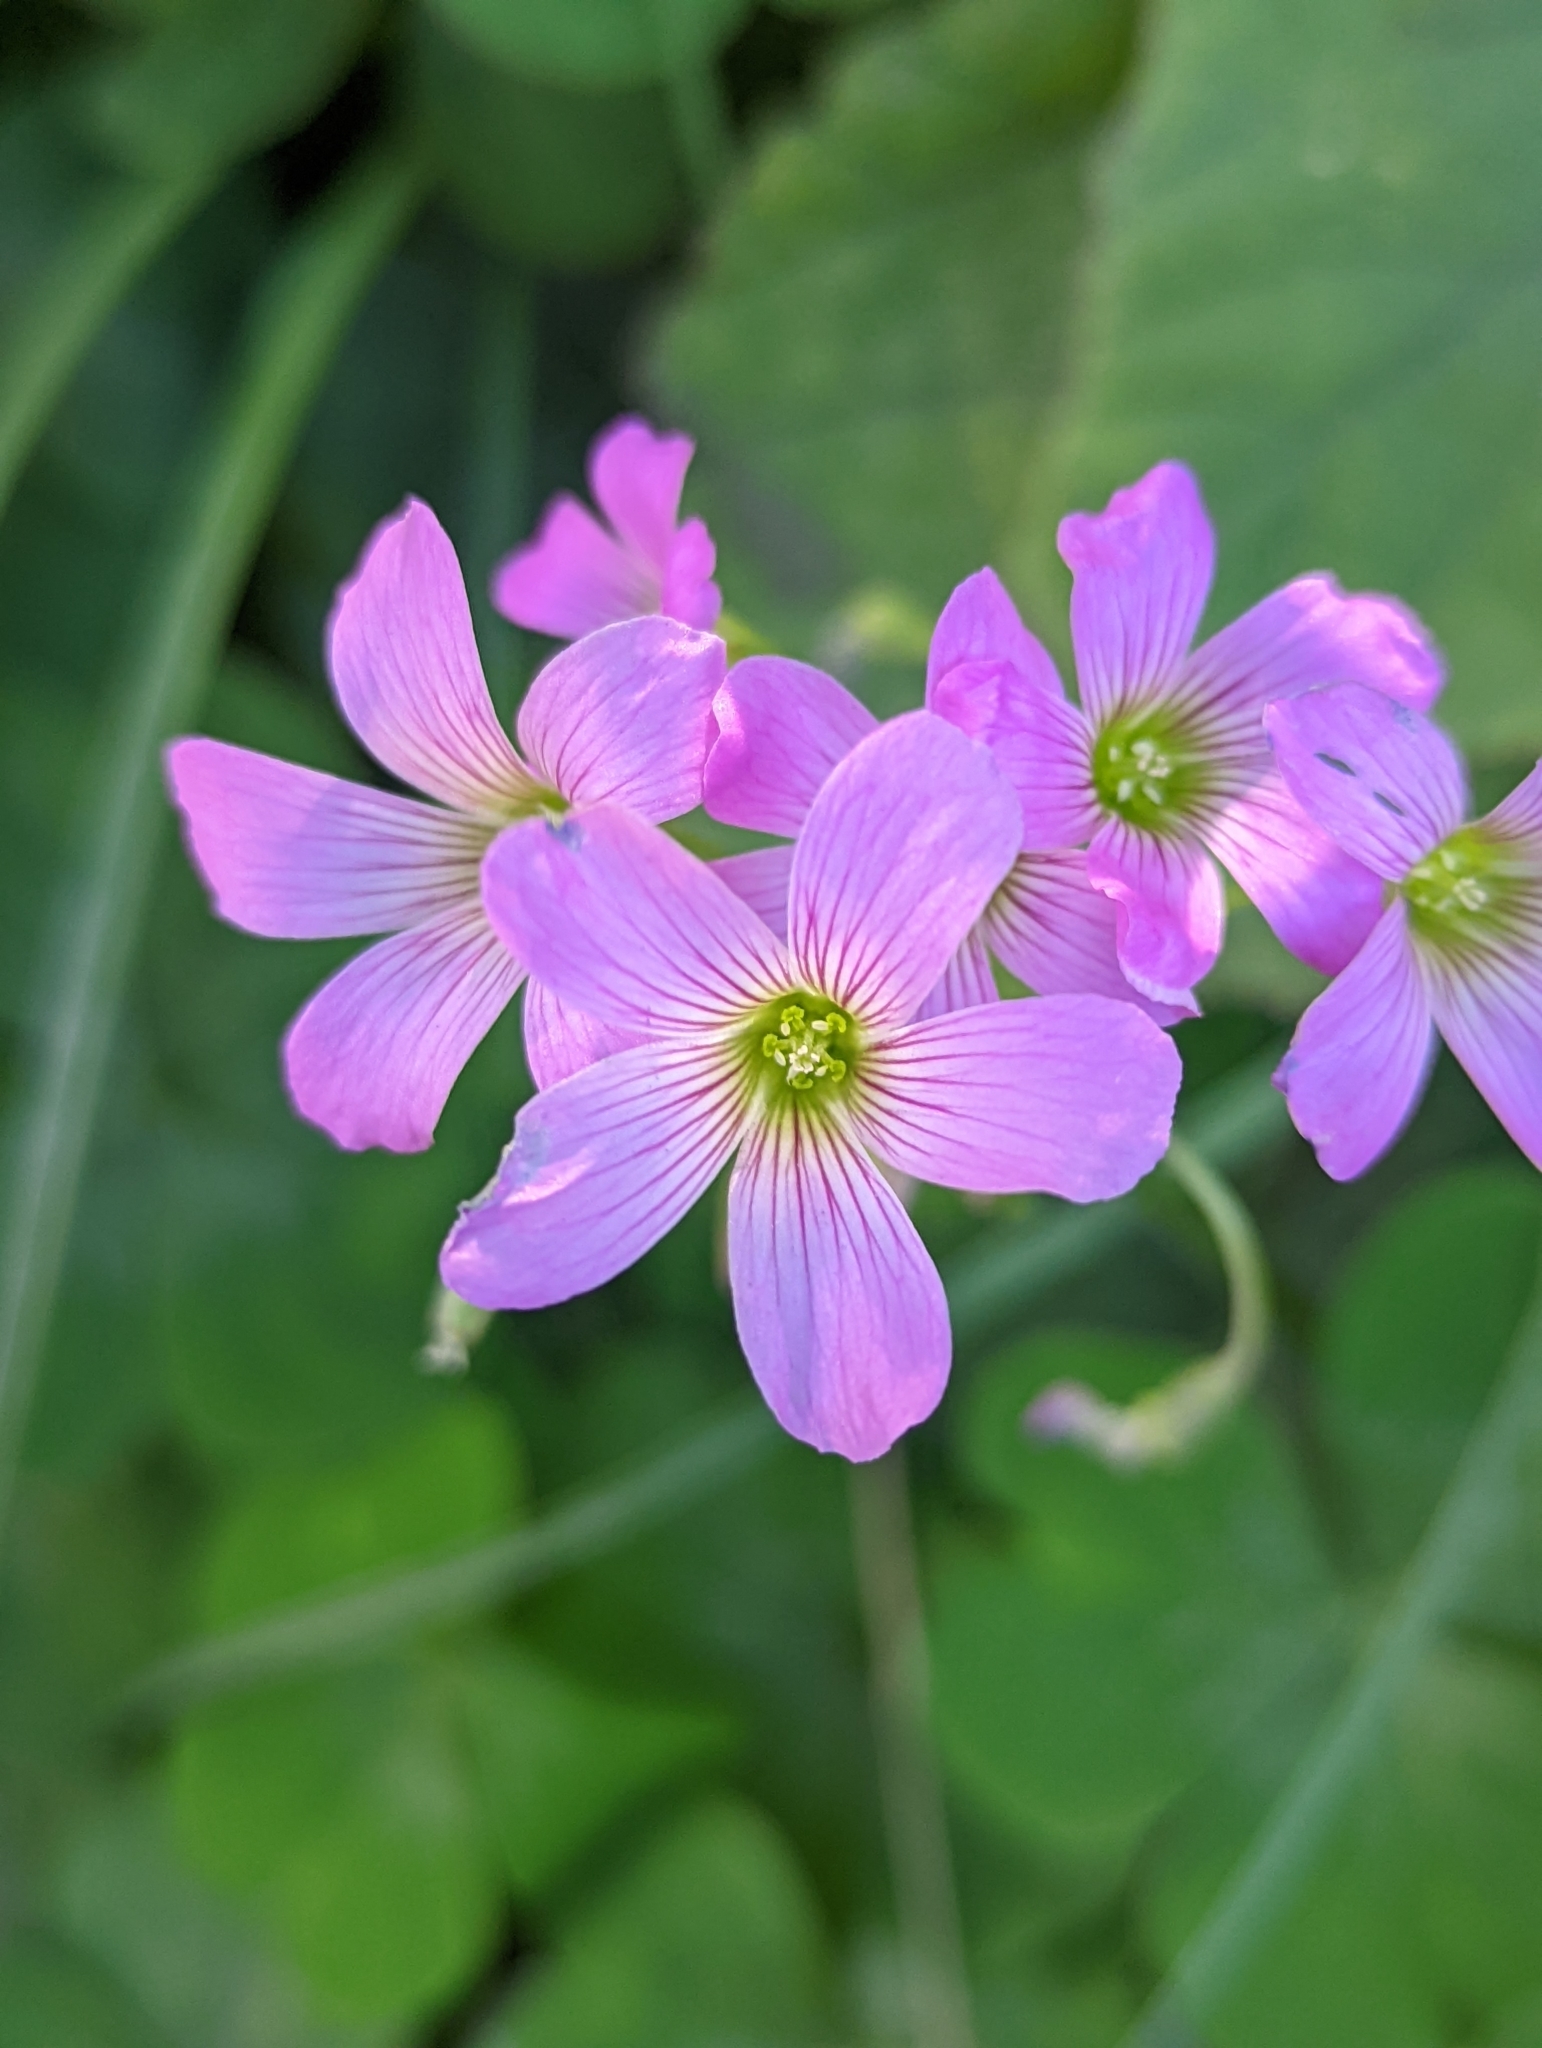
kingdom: Plantae
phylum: Tracheophyta
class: Magnoliopsida
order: Oxalidales
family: Oxalidaceae
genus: Oxalis
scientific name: Oxalis debilis
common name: Large-flowered pink-sorrel
